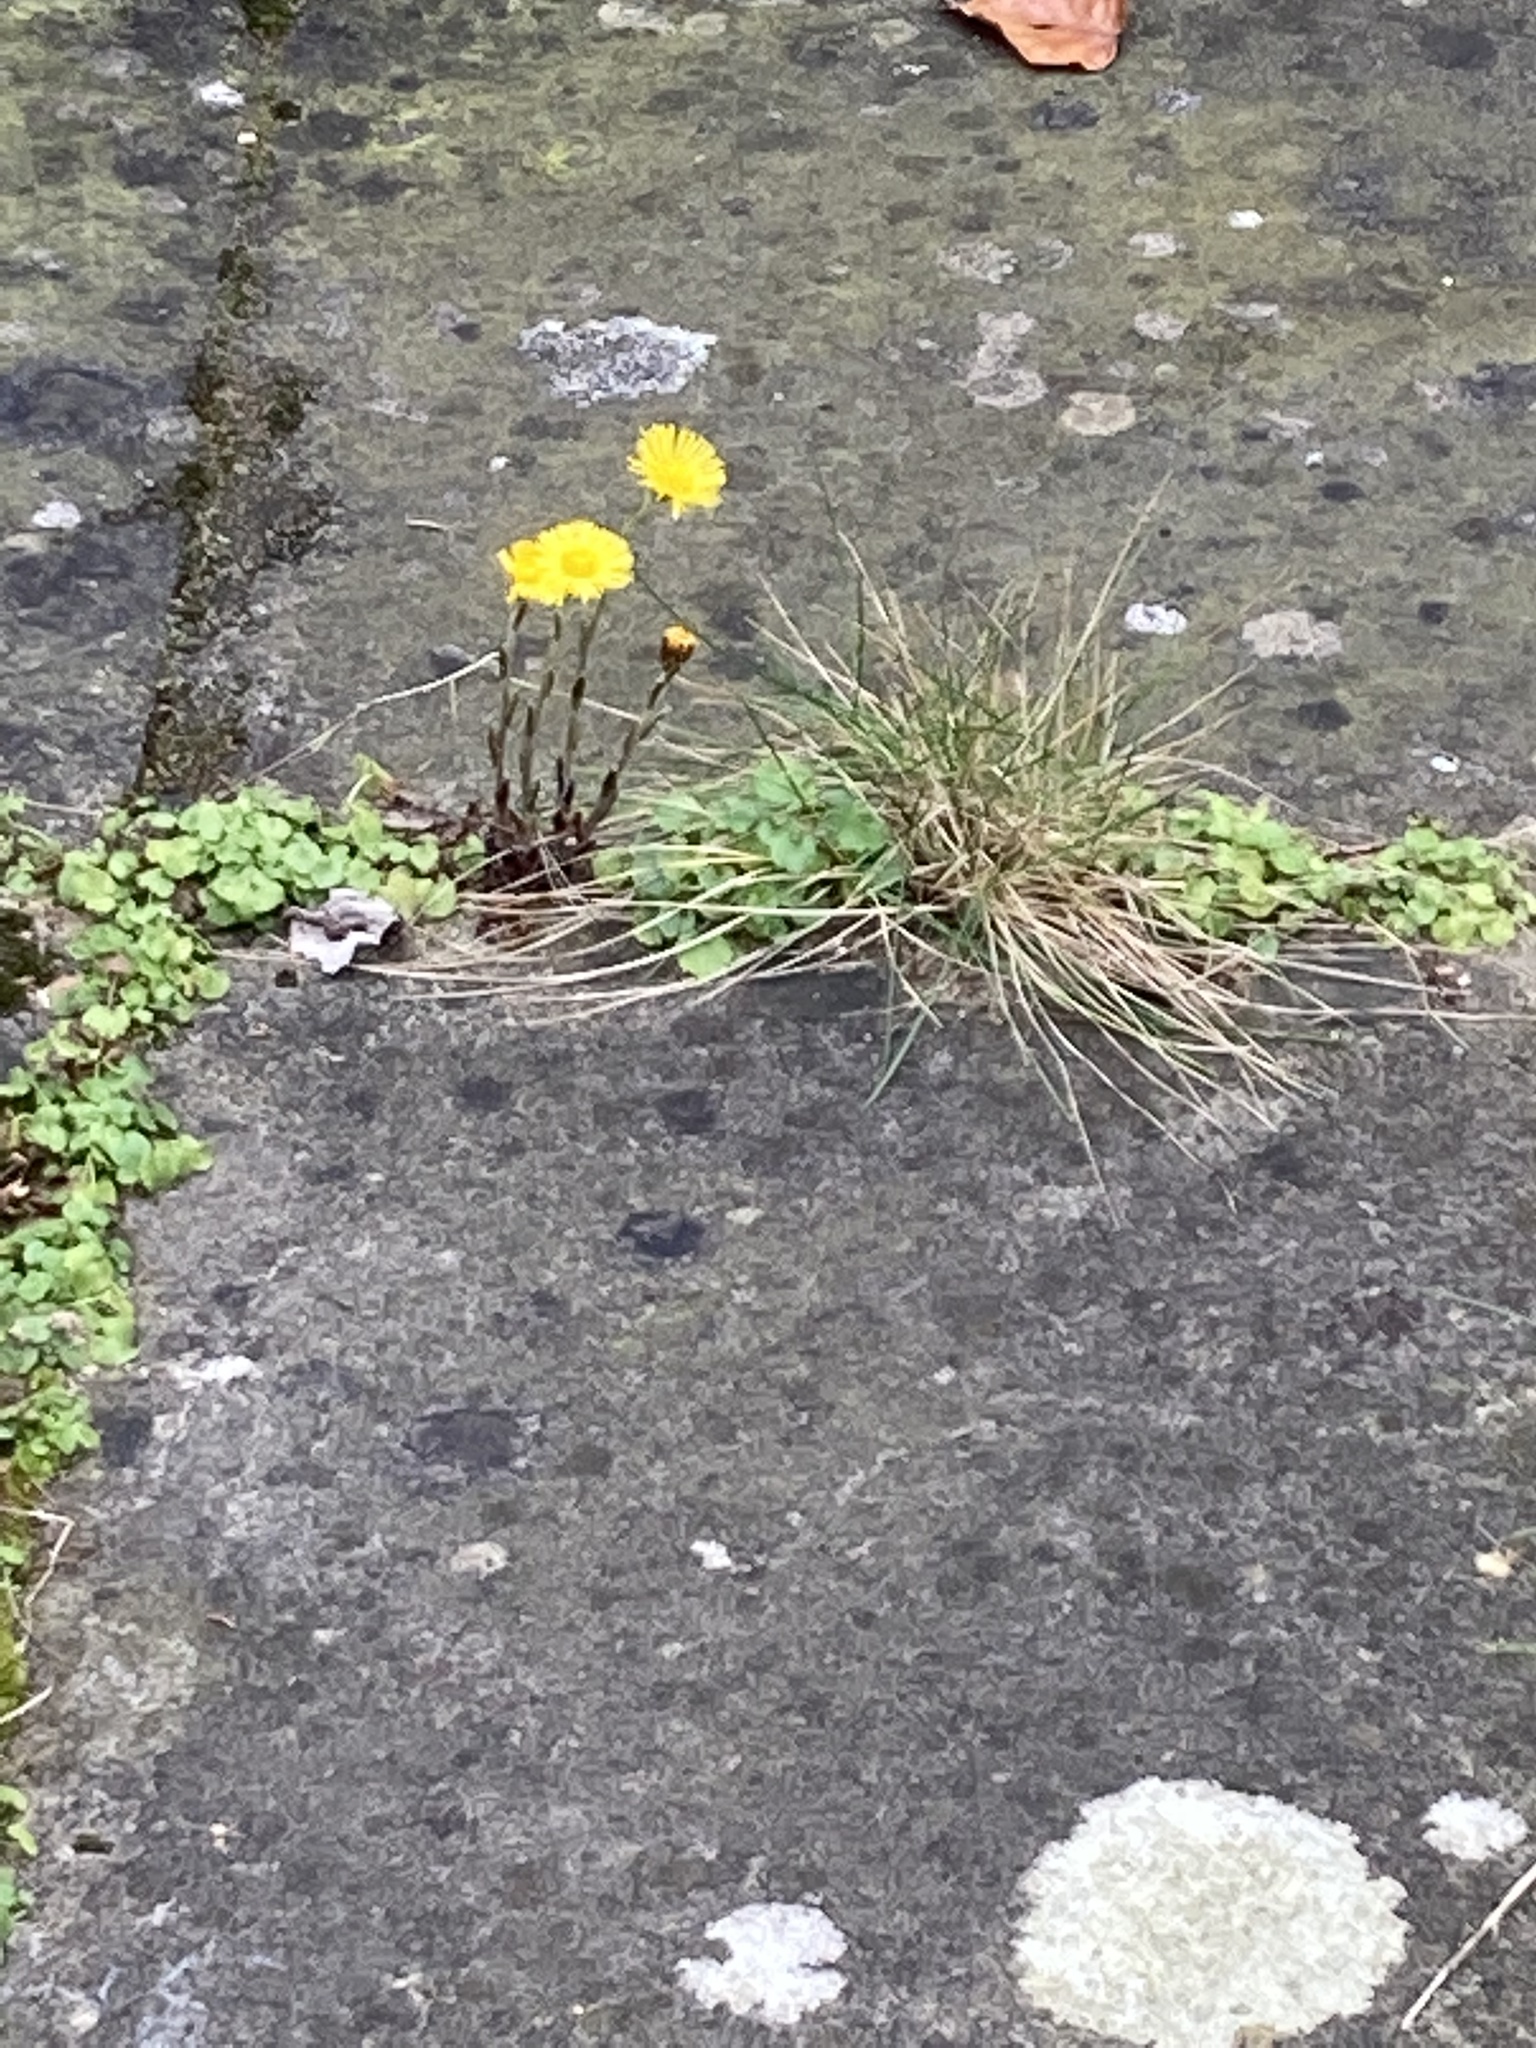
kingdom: Plantae
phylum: Tracheophyta
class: Magnoliopsida
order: Asterales
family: Asteraceae
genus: Tussilago
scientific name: Tussilago farfara
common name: Coltsfoot
